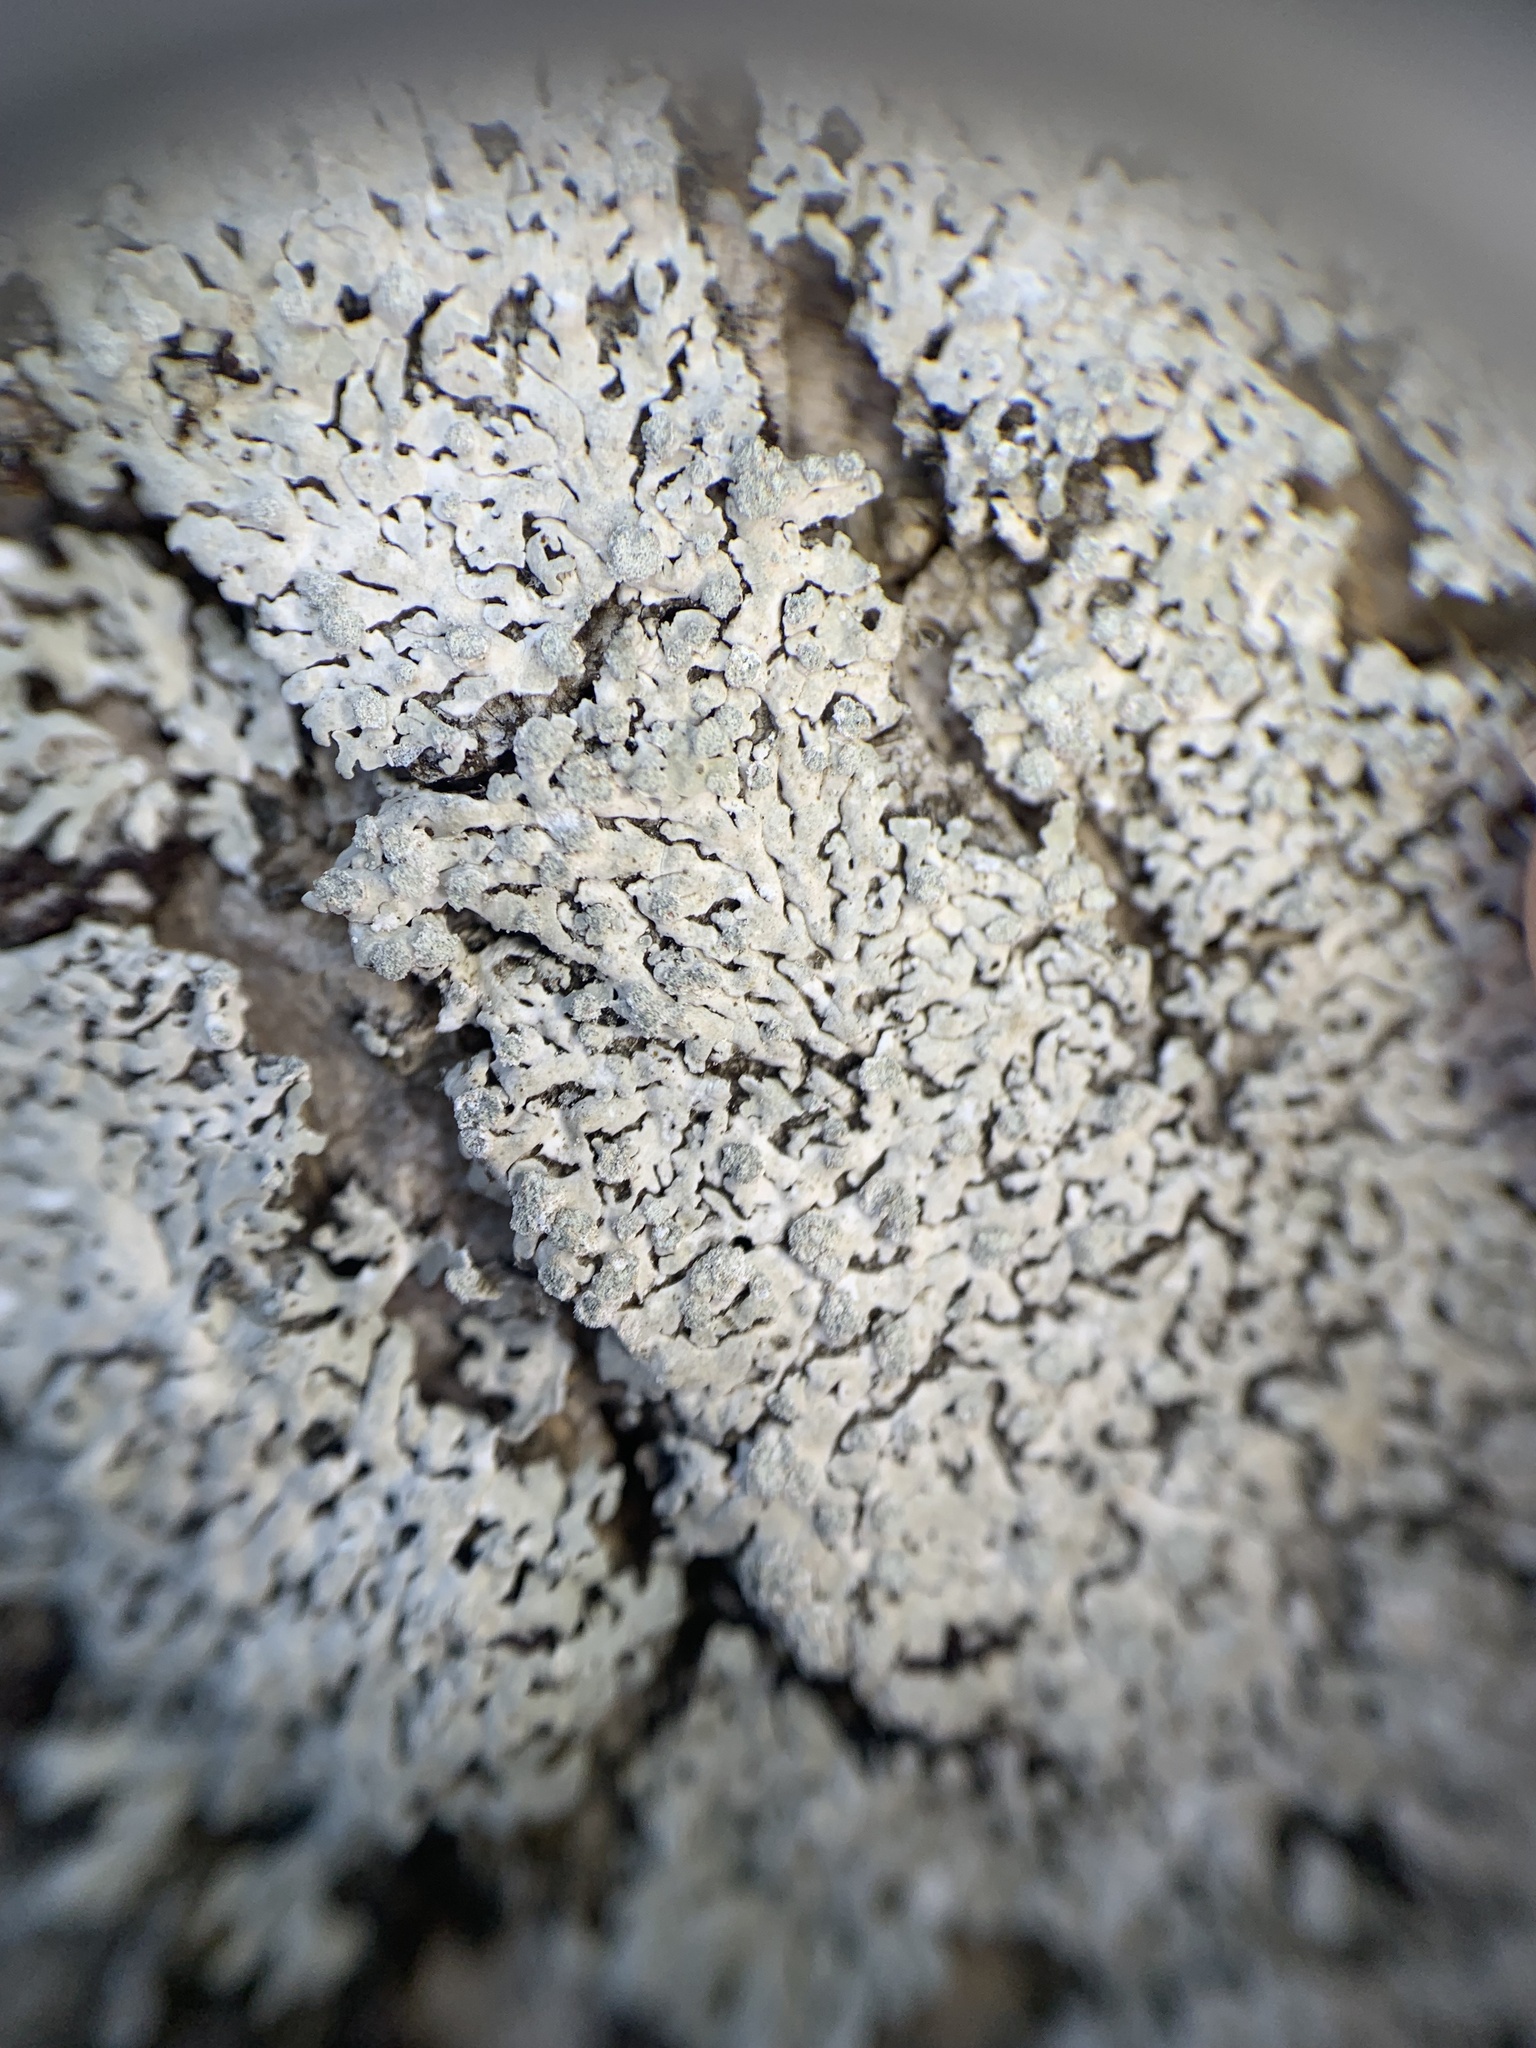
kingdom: Fungi
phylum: Ascomycota
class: Lecanoromycetes
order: Caliciales
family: Physciaceae
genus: Physcia
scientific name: Physcia americana
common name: American rosette lichen
